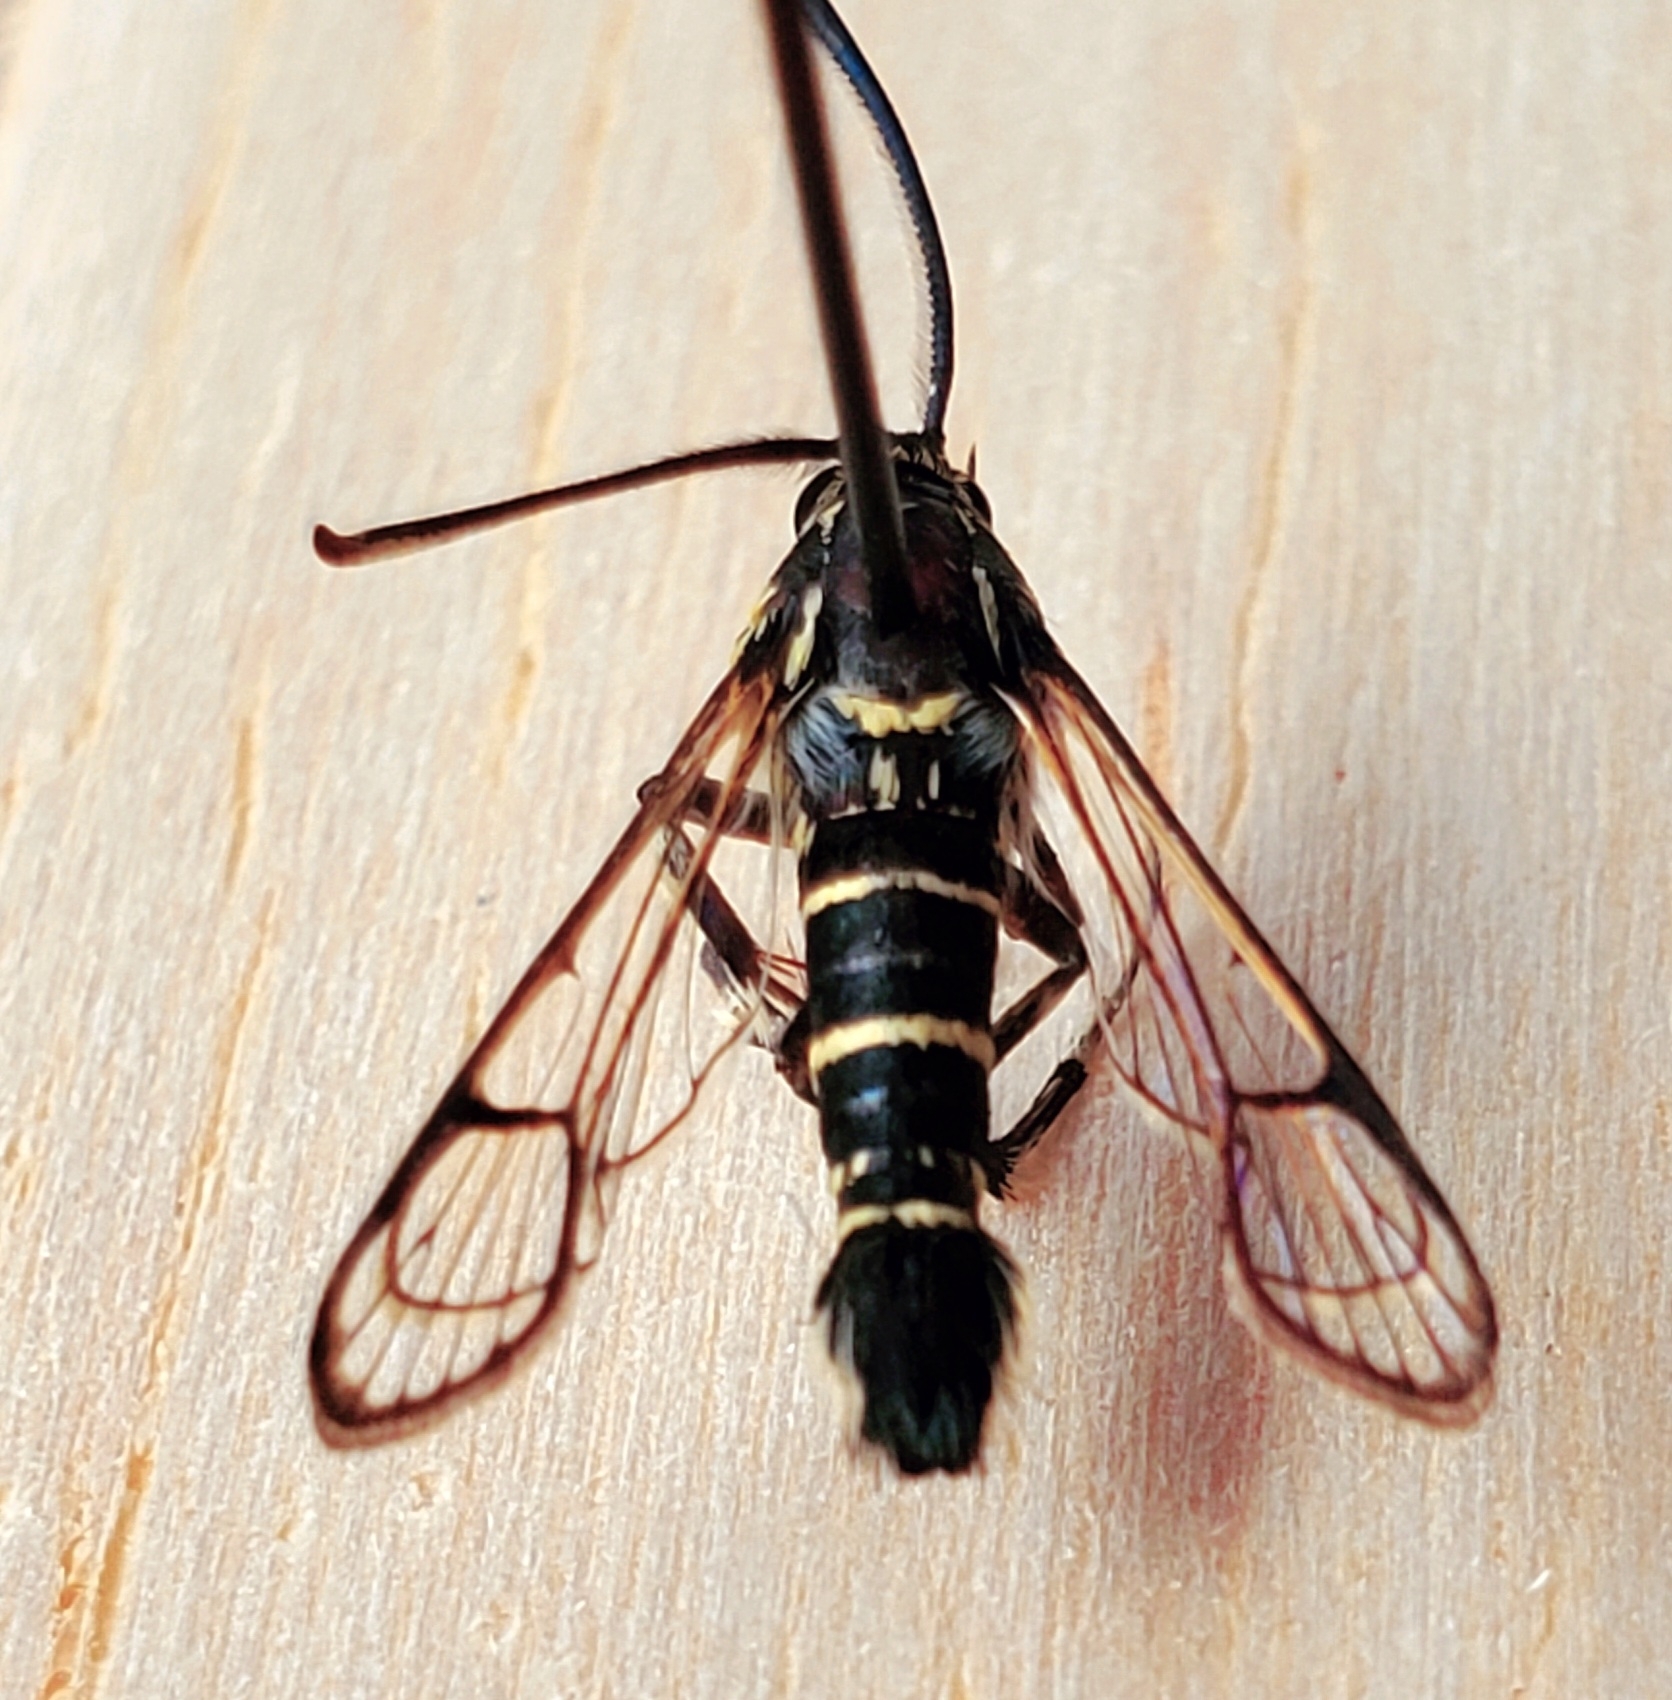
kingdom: Animalia
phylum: Arthropoda
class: Insecta
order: Lepidoptera
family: Sesiidae
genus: Carmenta
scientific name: Carmenta tecta
